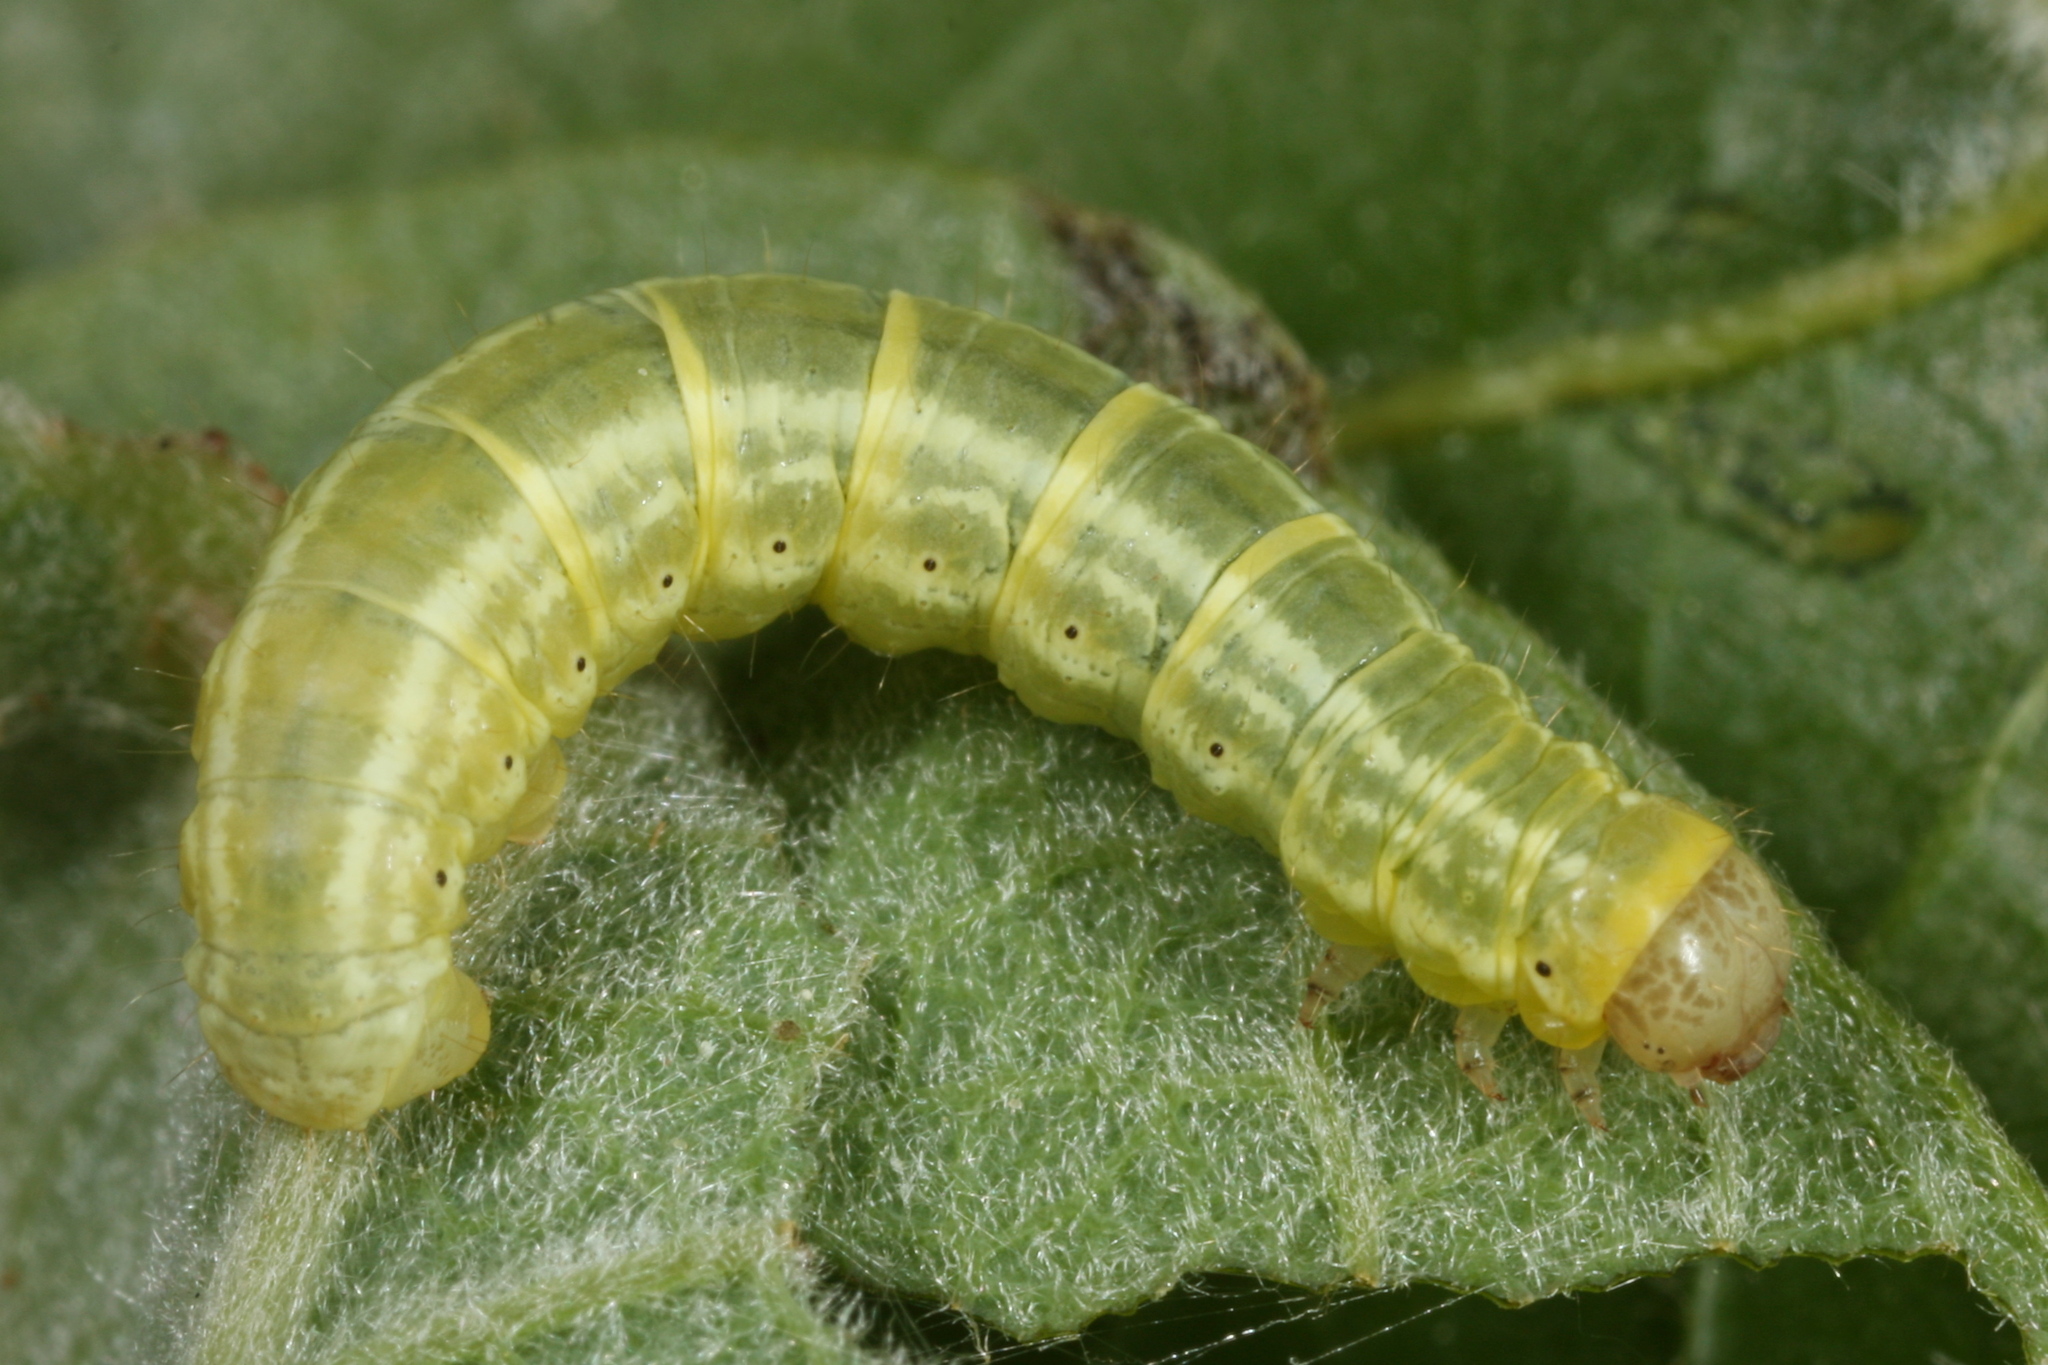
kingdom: Animalia
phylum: Arthropoda
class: Insecta
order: Lepidoptera
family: Geometridae
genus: Operophtera
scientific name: Operophtera fagata
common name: Northern winter moth
